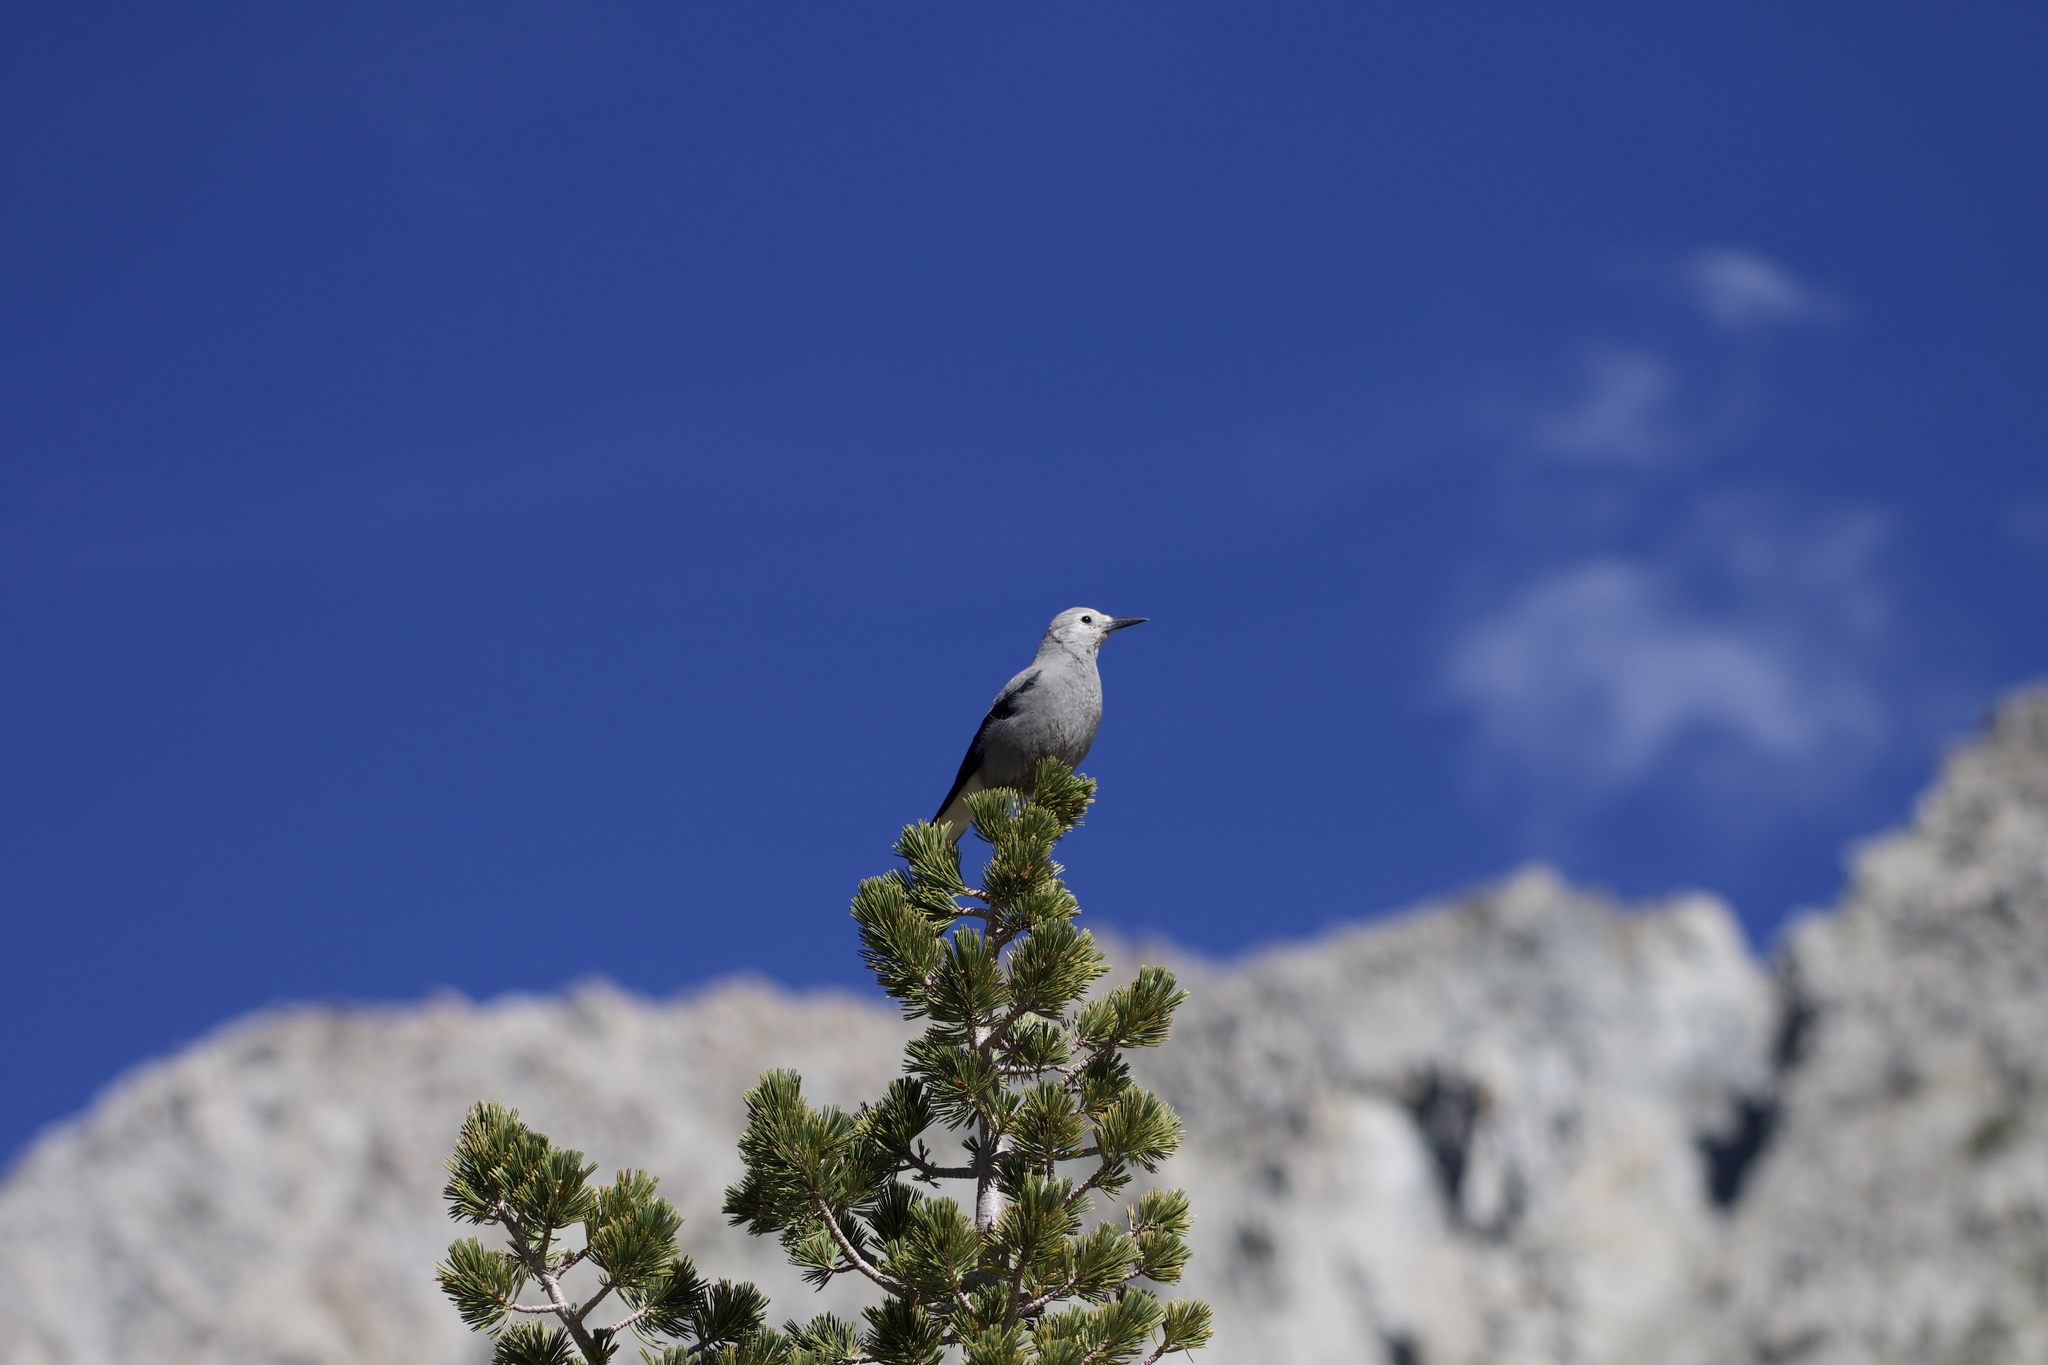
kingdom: Animalia
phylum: Chordata
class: Aves
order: Passeriformes
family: Corvidae
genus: Nucifraga
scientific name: Nucifraga columbiana
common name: Clark's nutcracker
